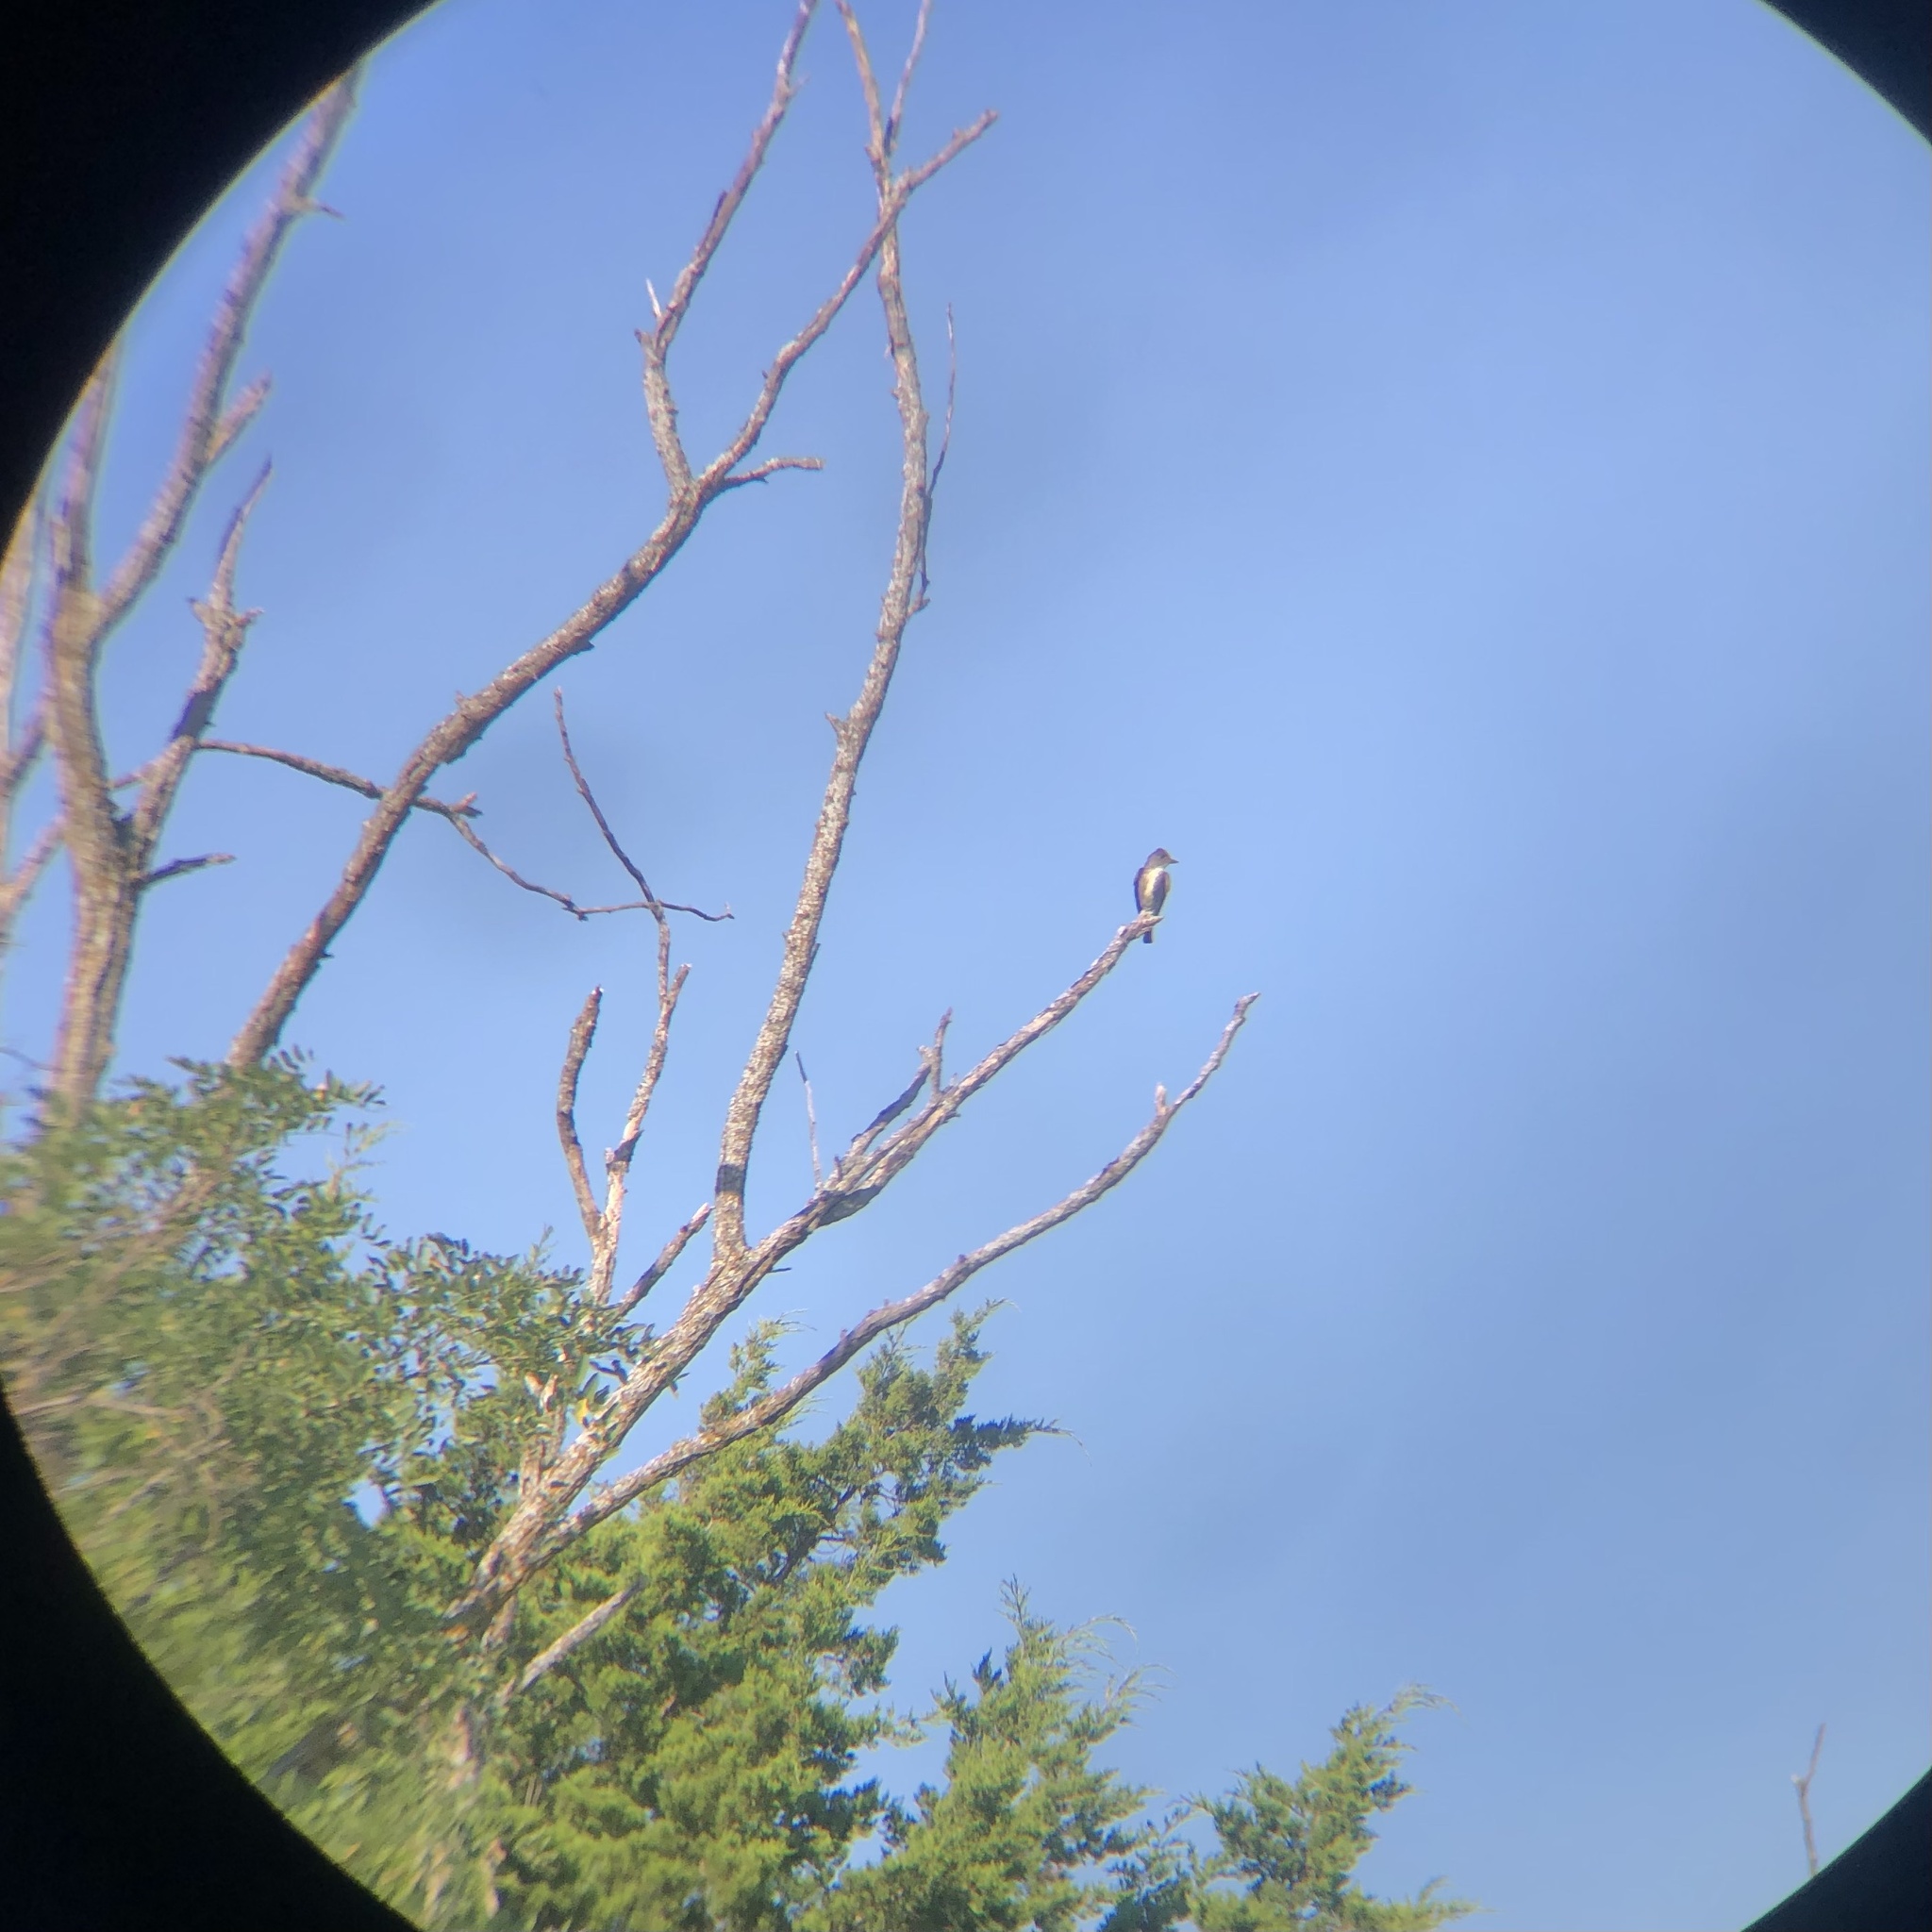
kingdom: Animalia
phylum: Chordata
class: Aves
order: Passeriformes
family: Tyrannidae
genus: Contopus
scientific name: Contopus cooperi
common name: Olive-sided flycatcher
